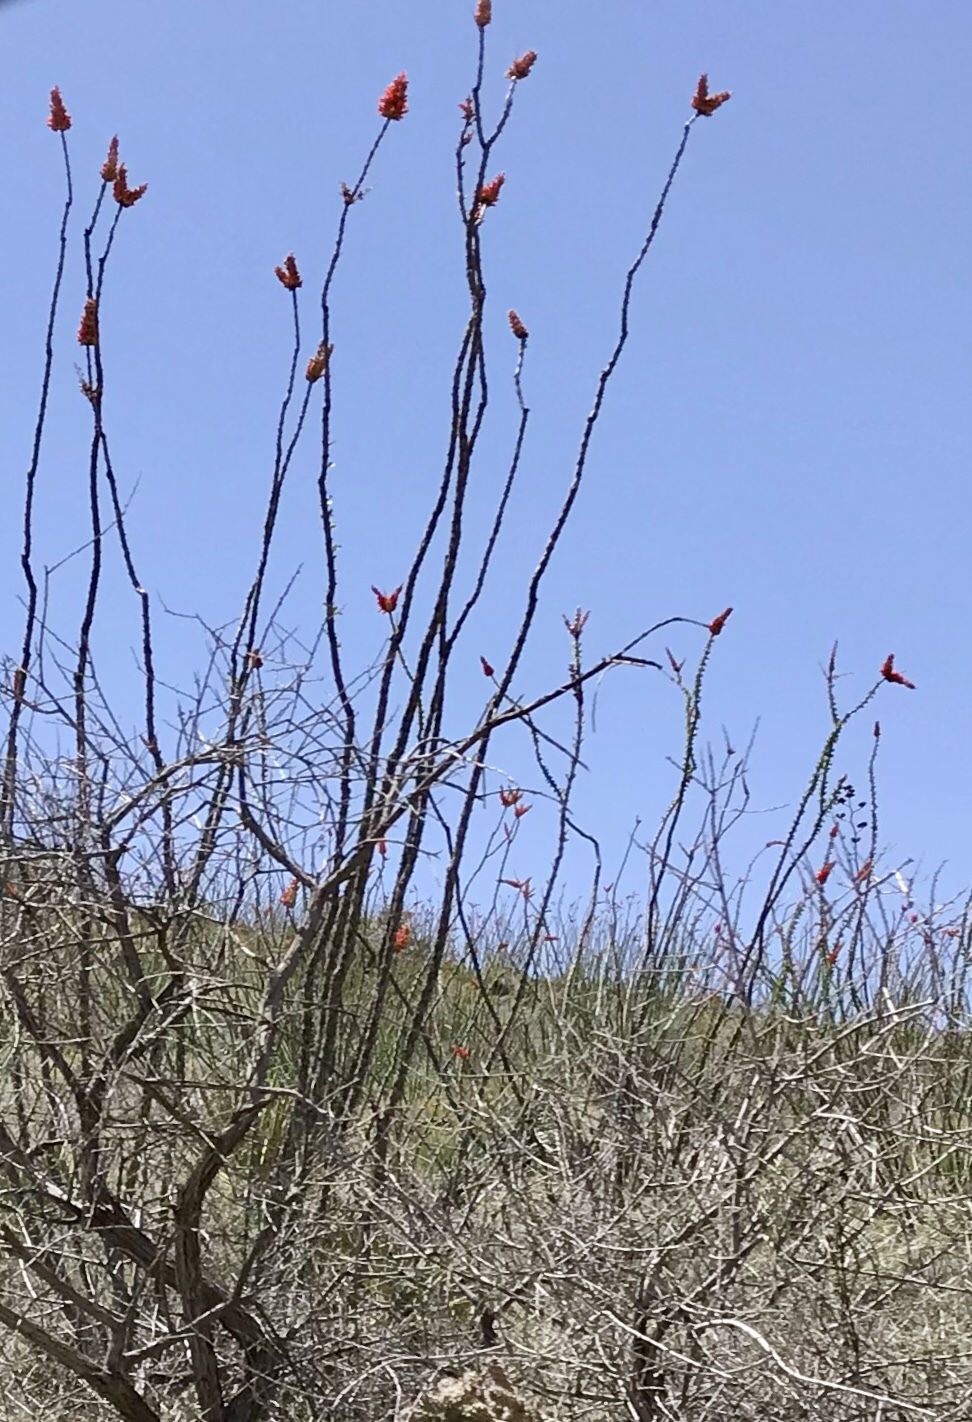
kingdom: Plantae
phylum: Tracheophyta
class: Magnoliopsida
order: Ericales
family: Fouquieriaceae
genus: Fouquieria
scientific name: Fouquieria splendens
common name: Vine-cactus
